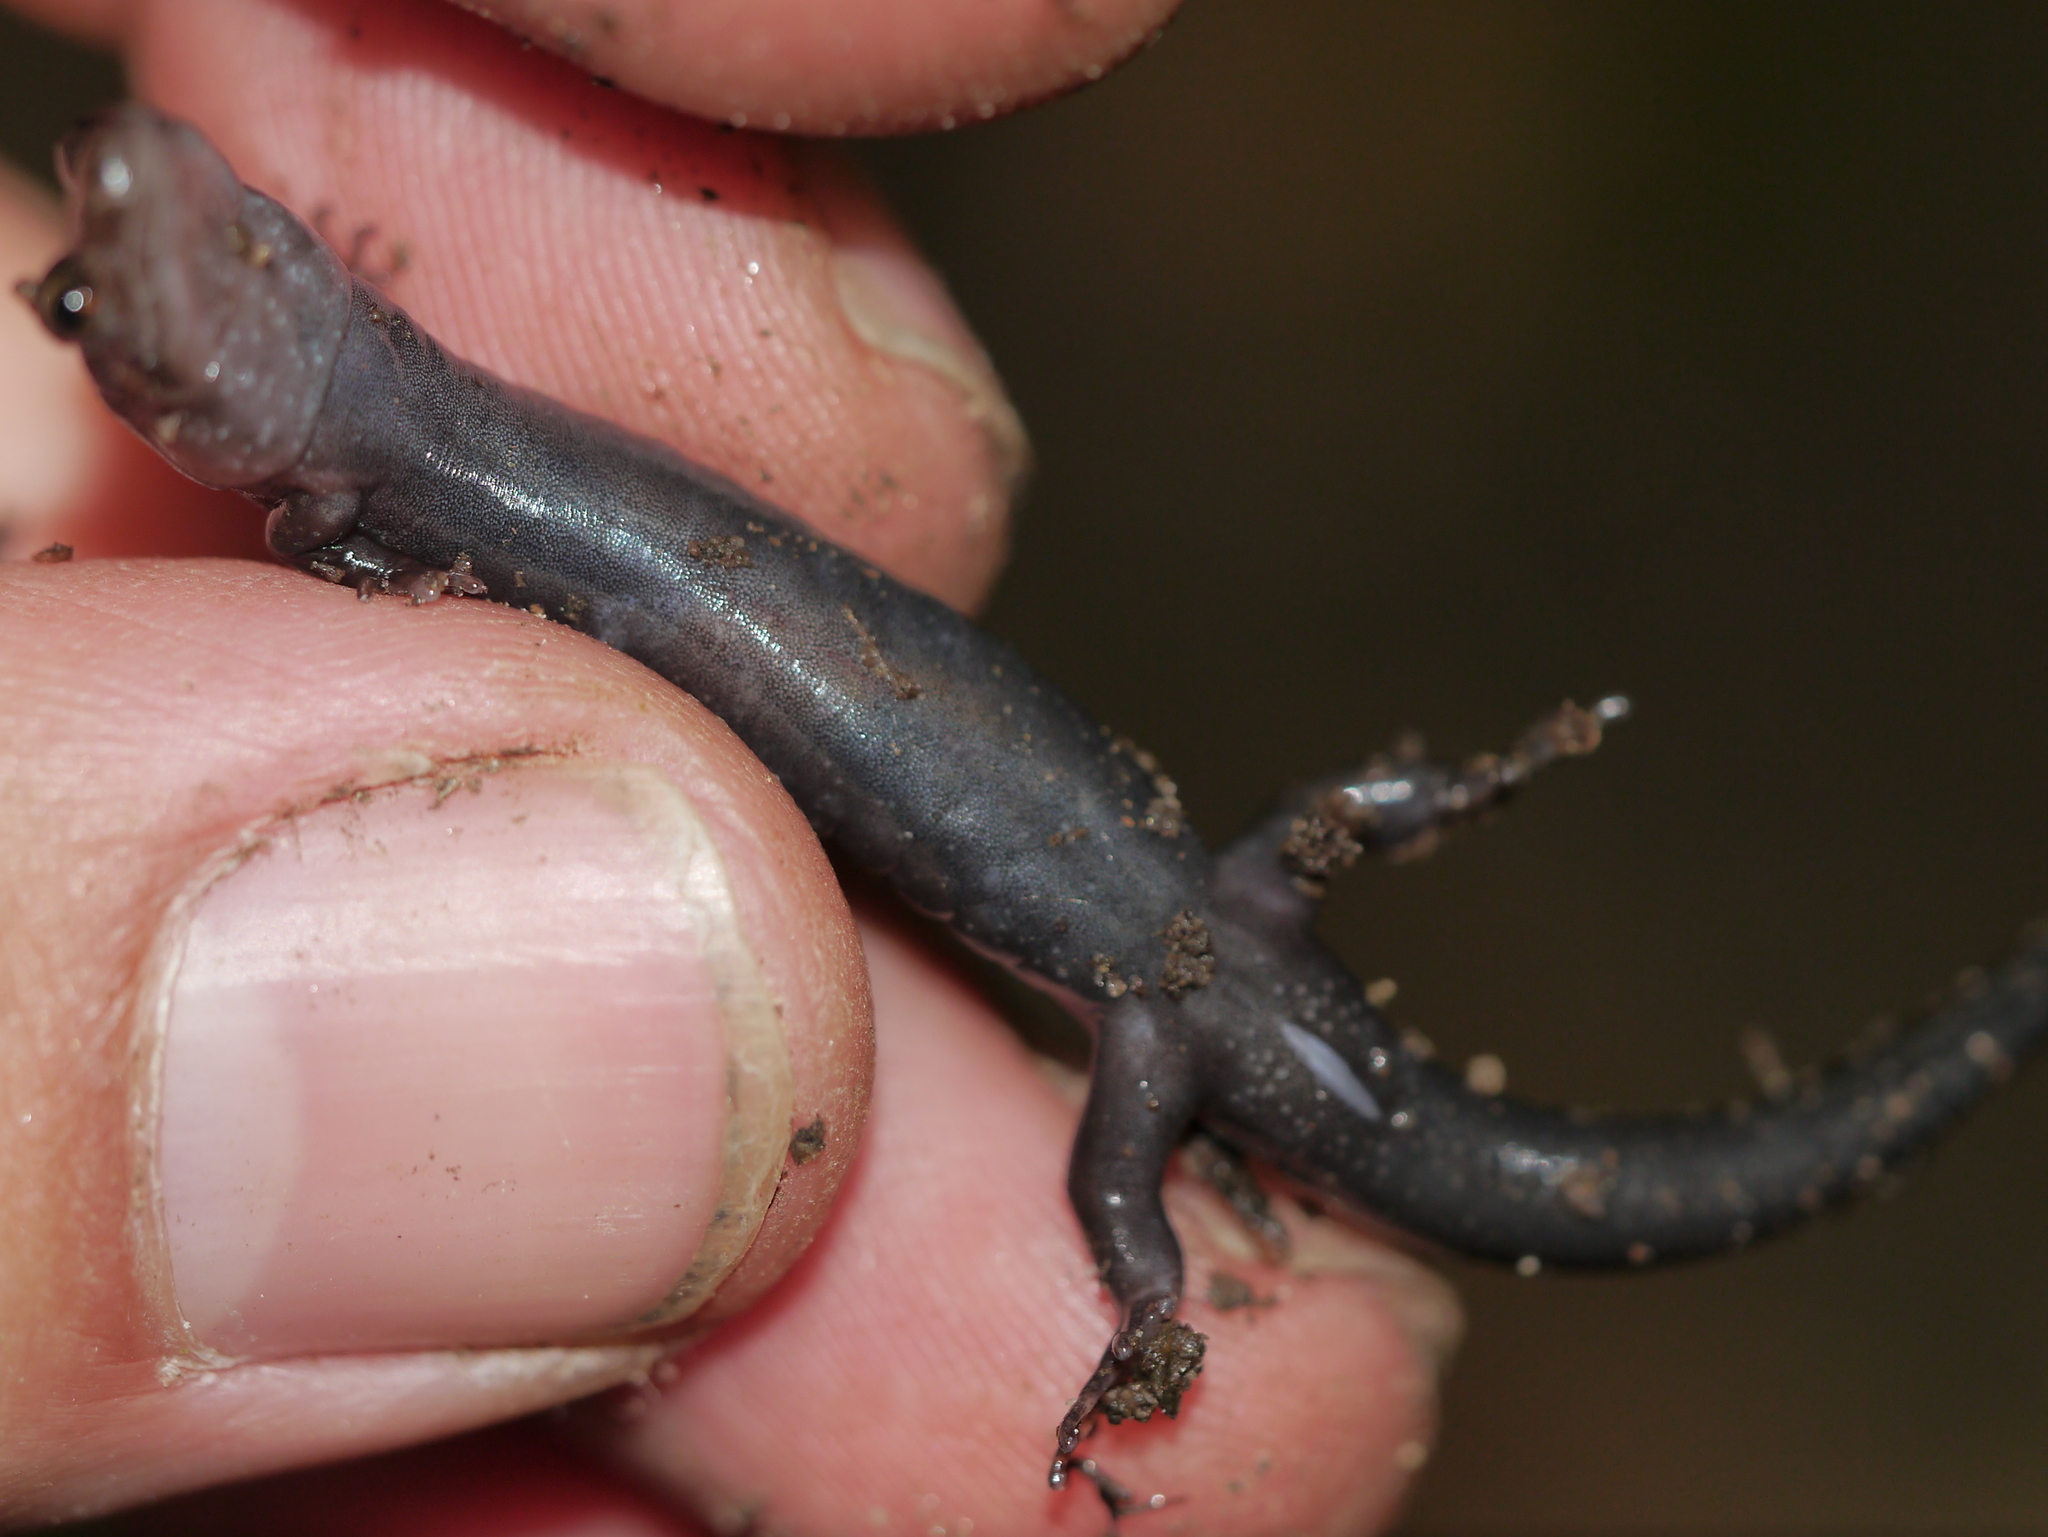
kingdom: Animalia
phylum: Chordata
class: Amphibia
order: Caudata
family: Plethodontidae
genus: Desmognathus
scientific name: Desmognathus imitator
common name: Imitator salamander
